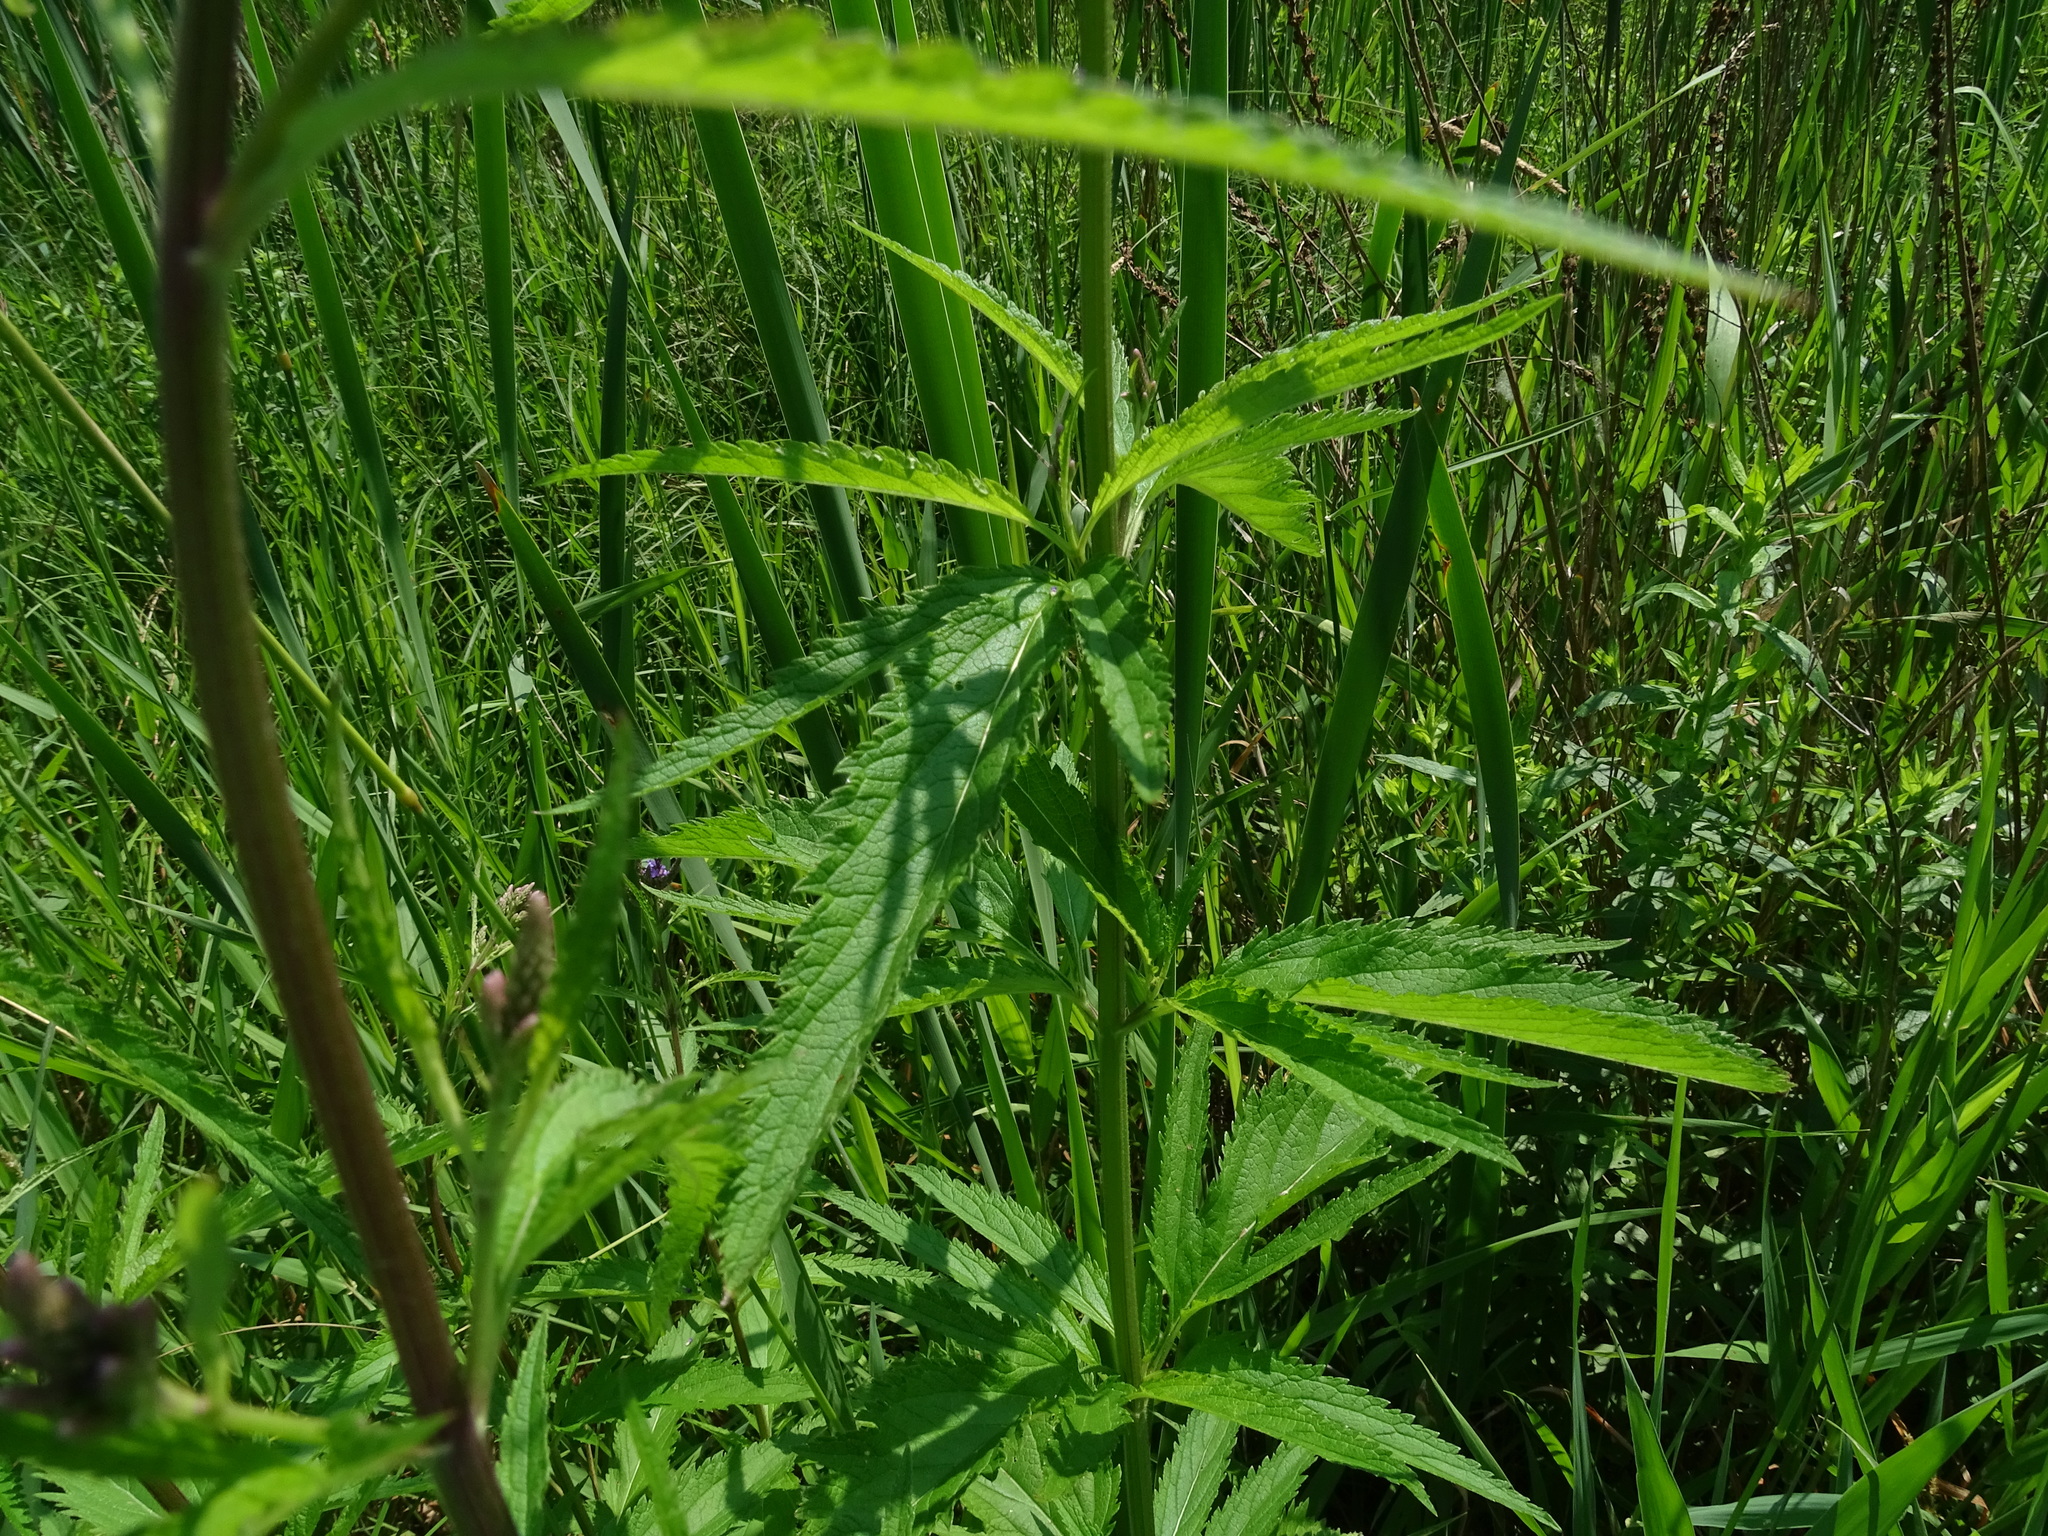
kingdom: Plantae
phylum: Tracheophyta
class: Magnoliopsida
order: Lamiales
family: Verbenaceae
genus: Verbena
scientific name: Verbena hastata
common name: American blue vervain
